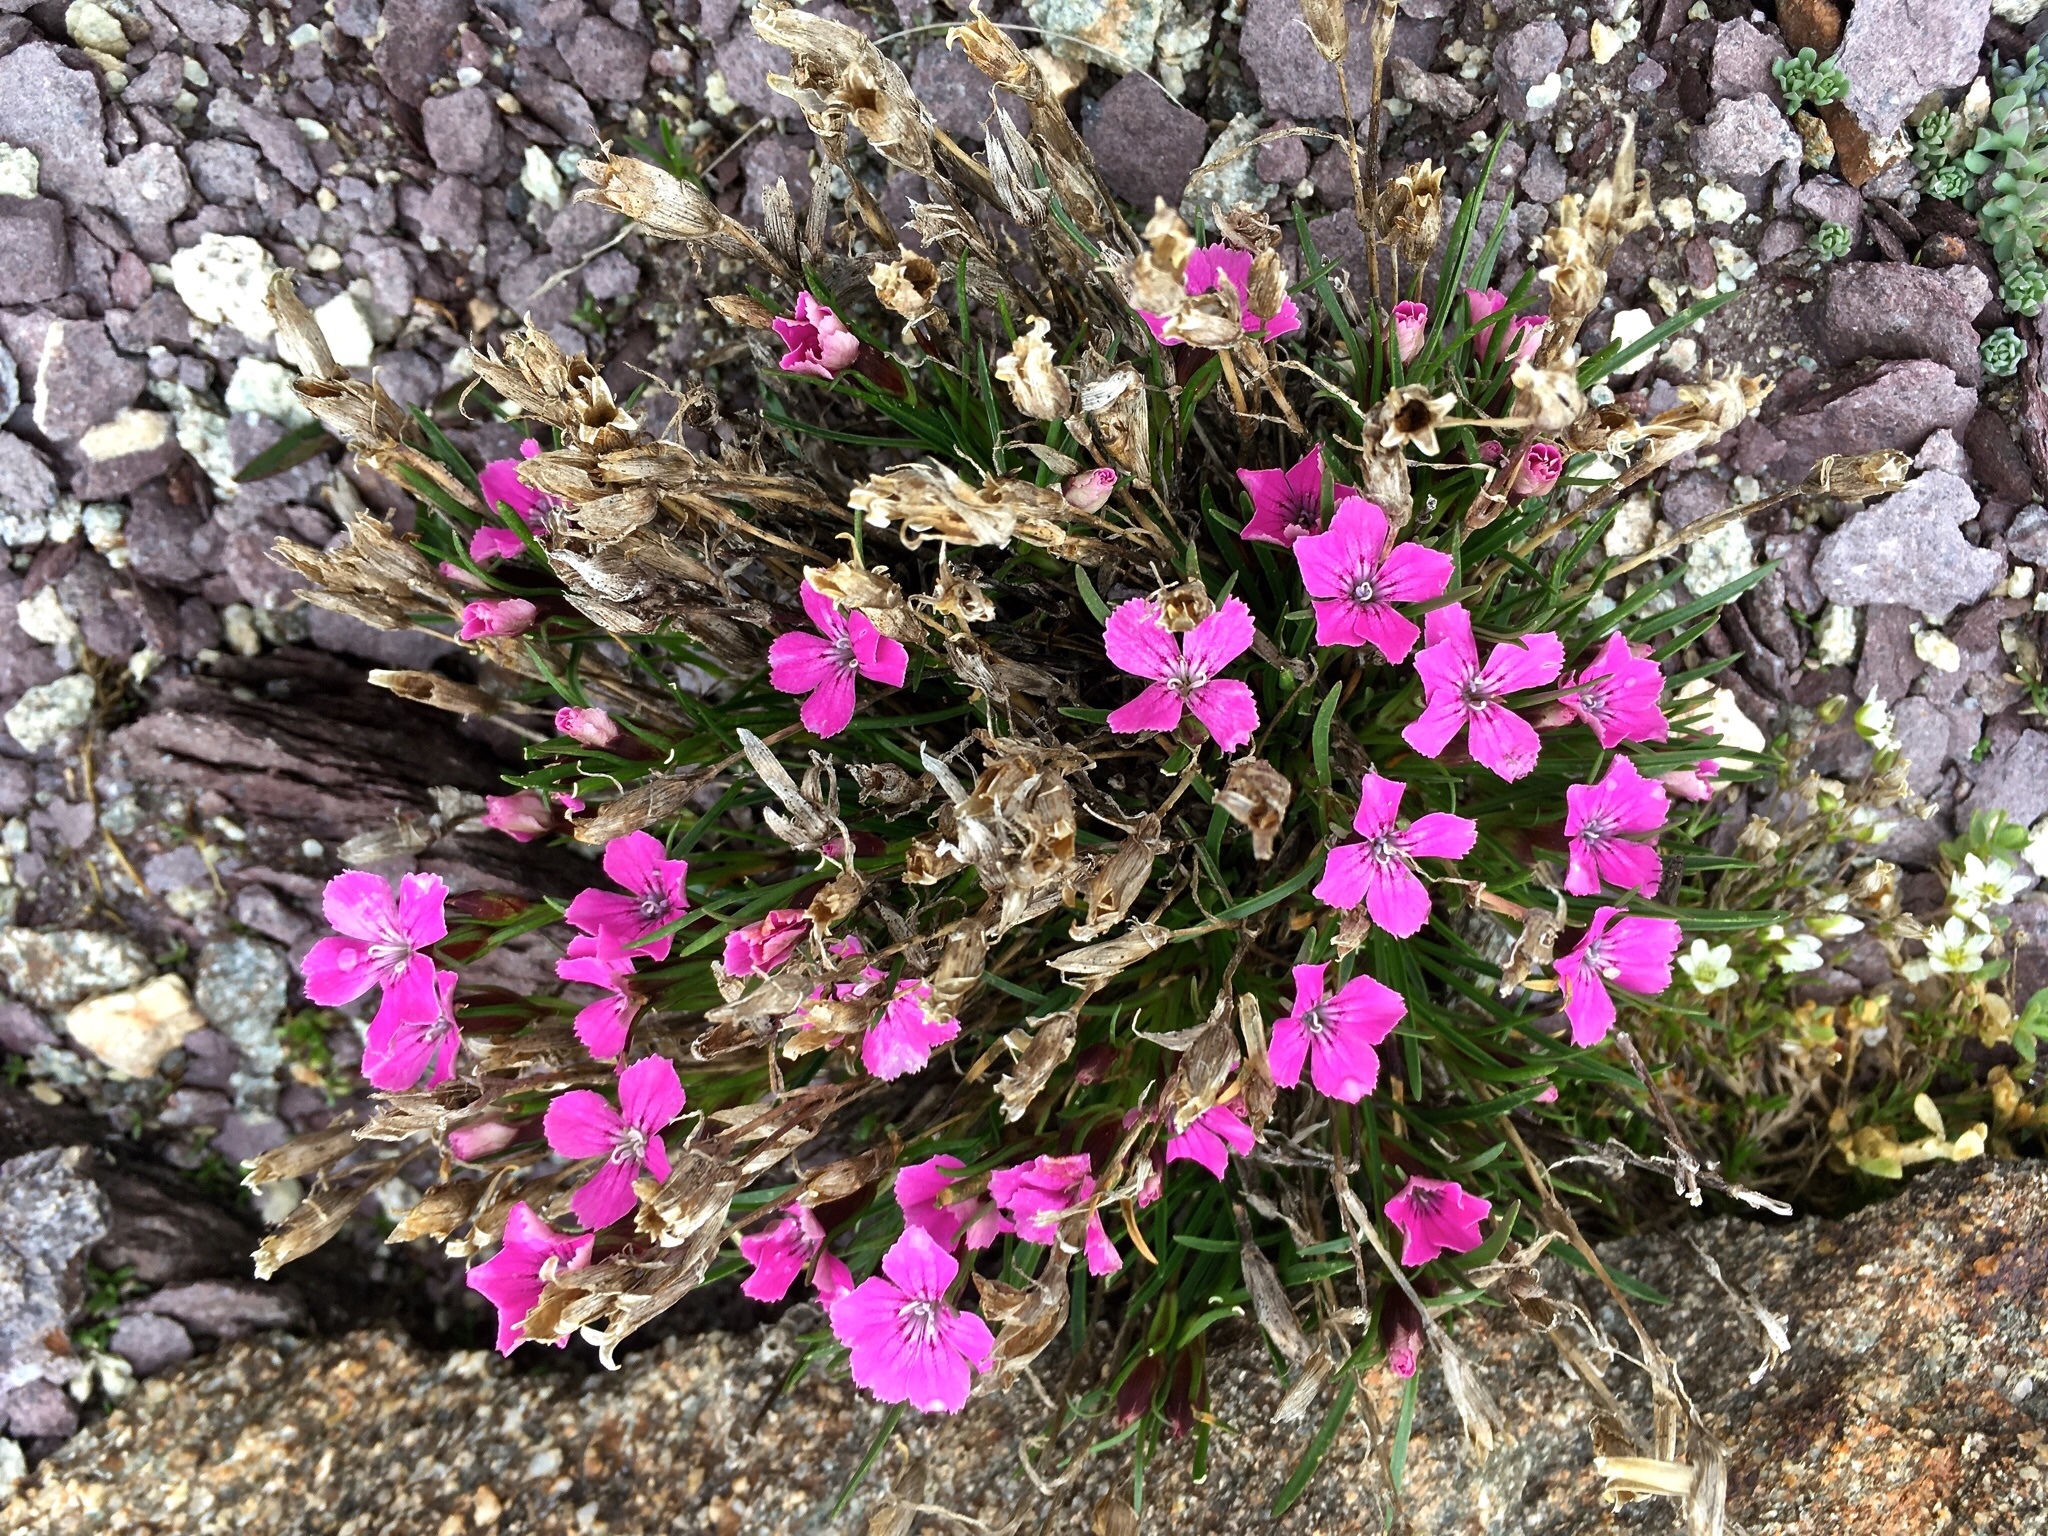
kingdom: Plantae
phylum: Tracheophyta
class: Magnoliopsida
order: Caryophyllales
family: Caryophyllaceae
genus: Dianthus
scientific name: Dianthus glacialis
